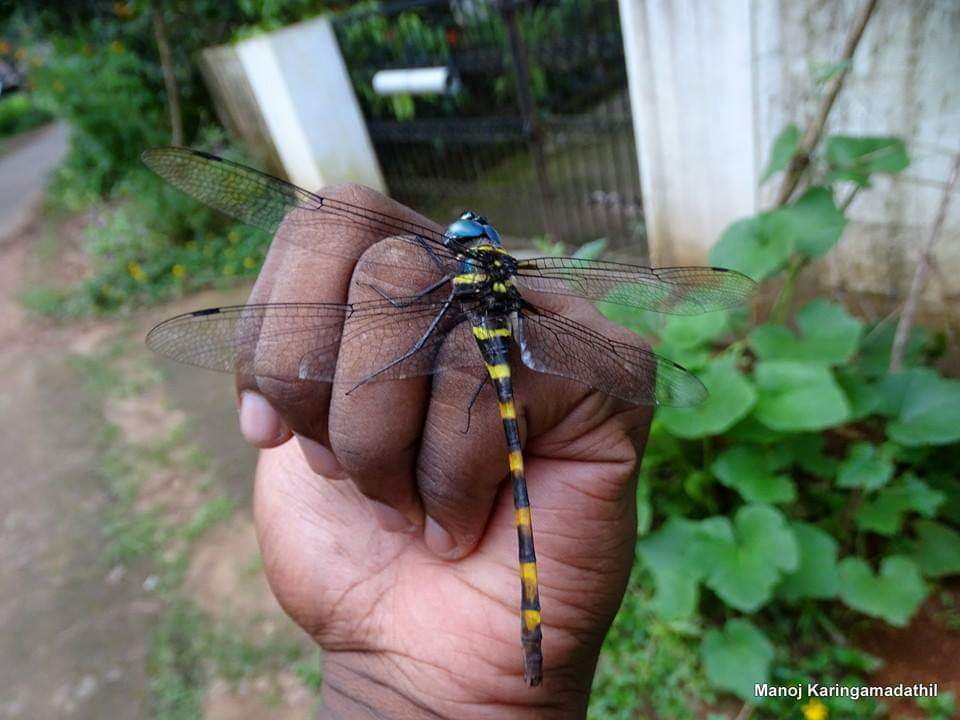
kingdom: Animalia
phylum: Arthropoda
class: Insecta
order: Odonata
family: Macromiidae
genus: Epophthalmia
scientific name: Epophthalmia vittata
